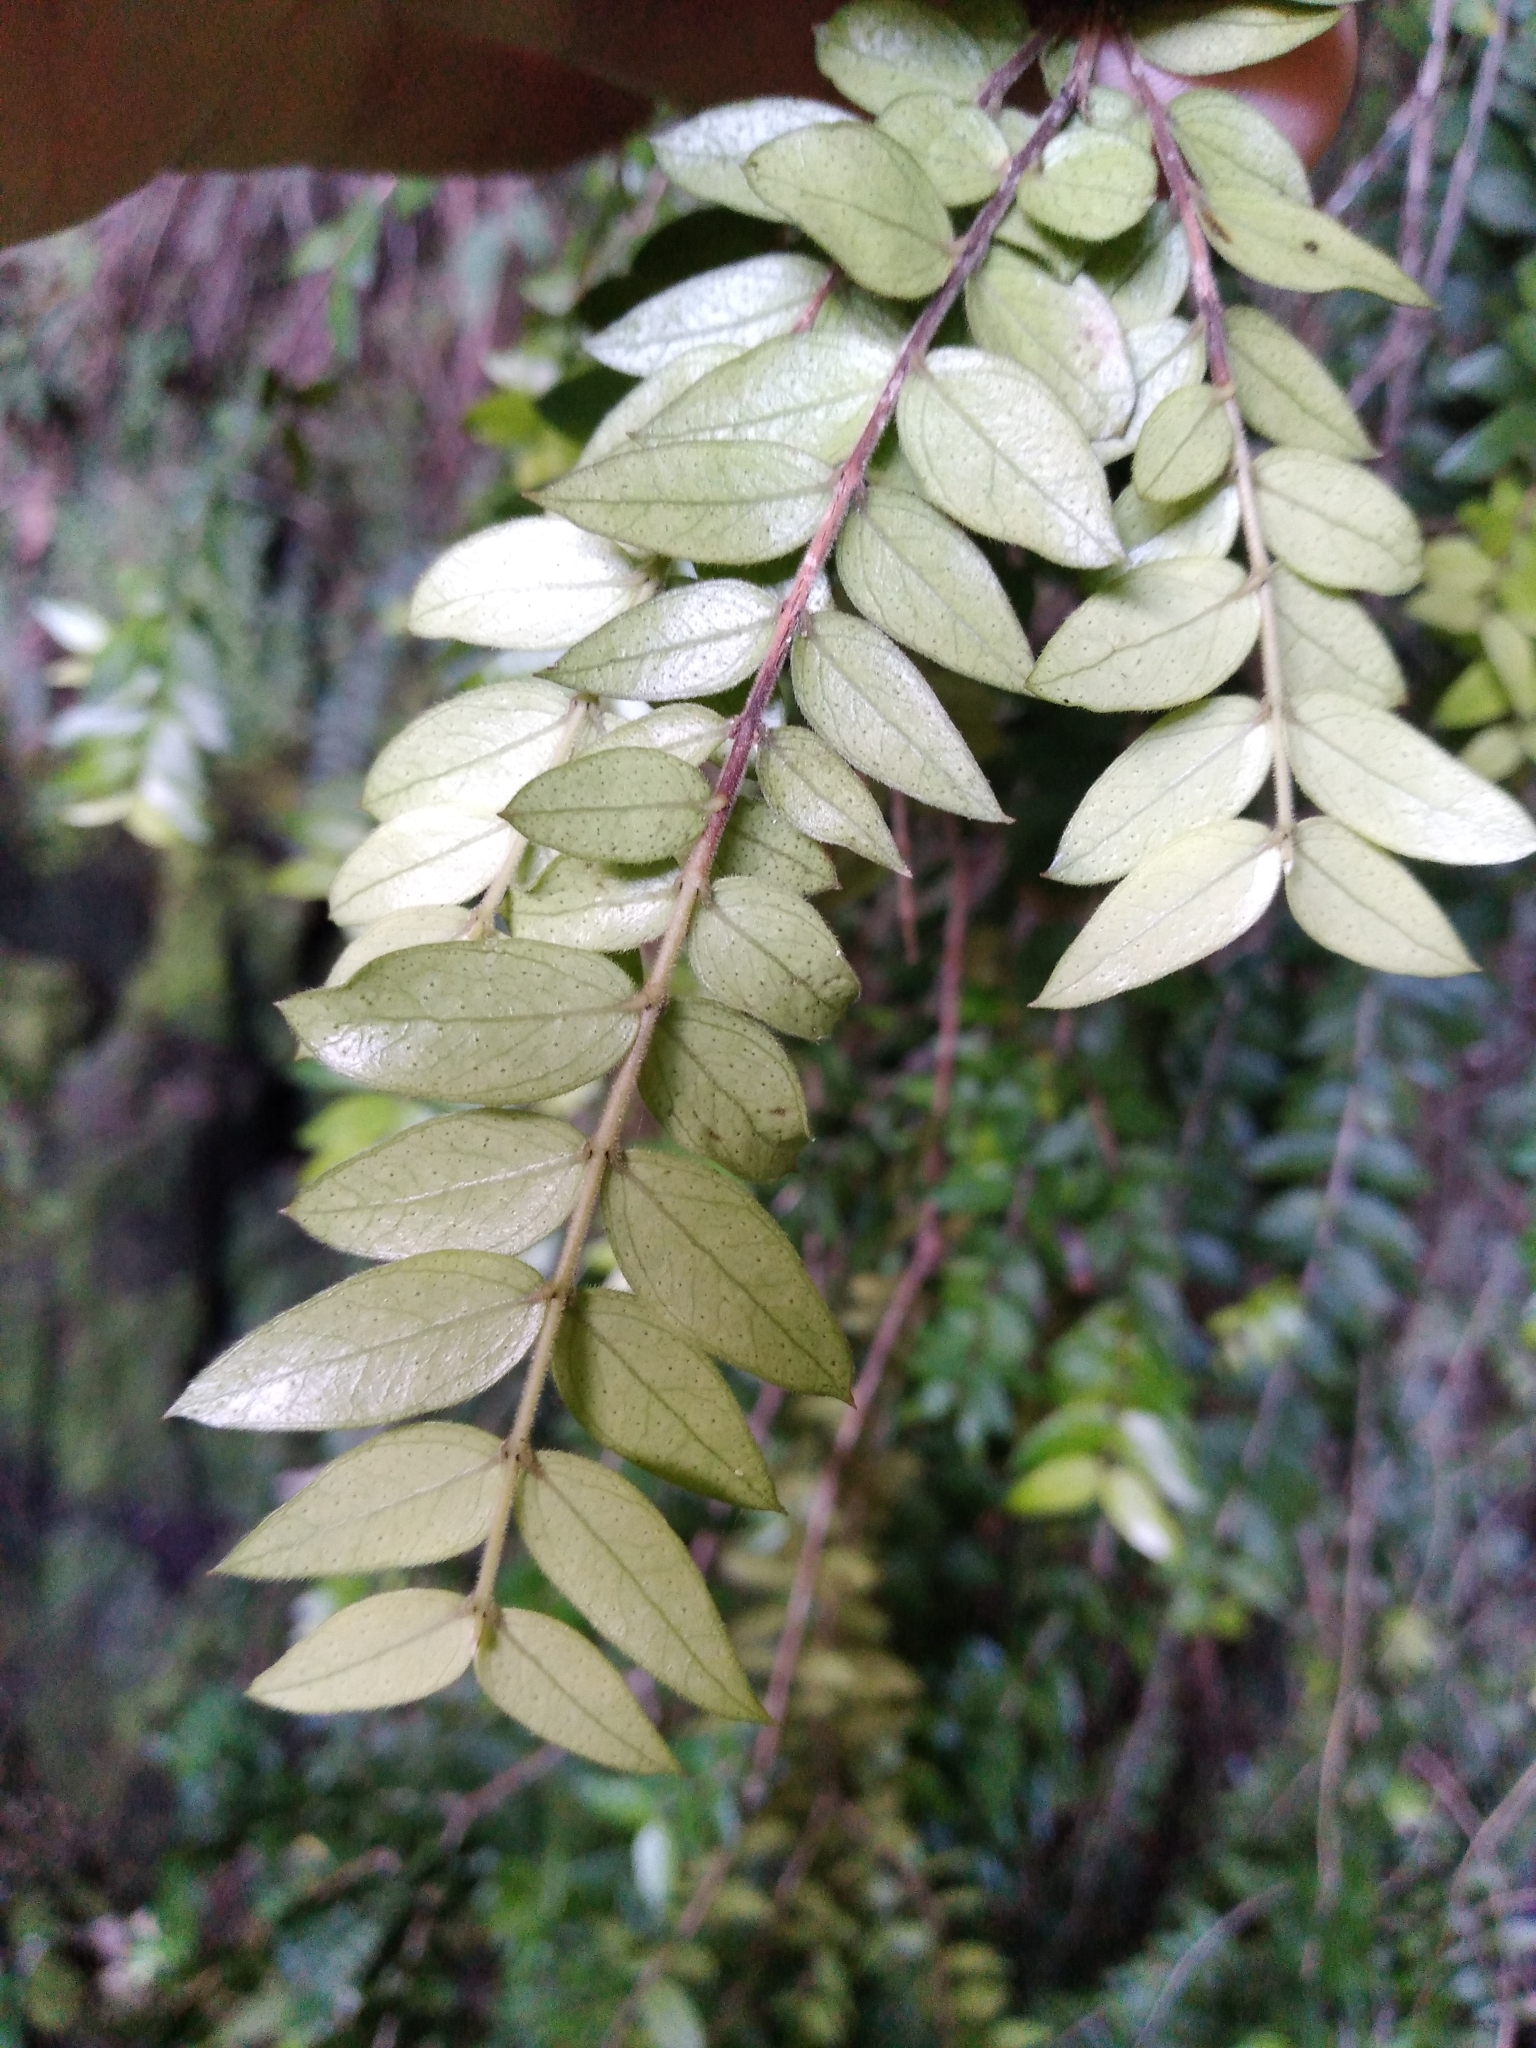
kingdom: Plantae
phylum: Tracheophyta
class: Magnoliopsida
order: Myrtales
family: Myrtaceae
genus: Metrosideros
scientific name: Metrosideros colensoi
